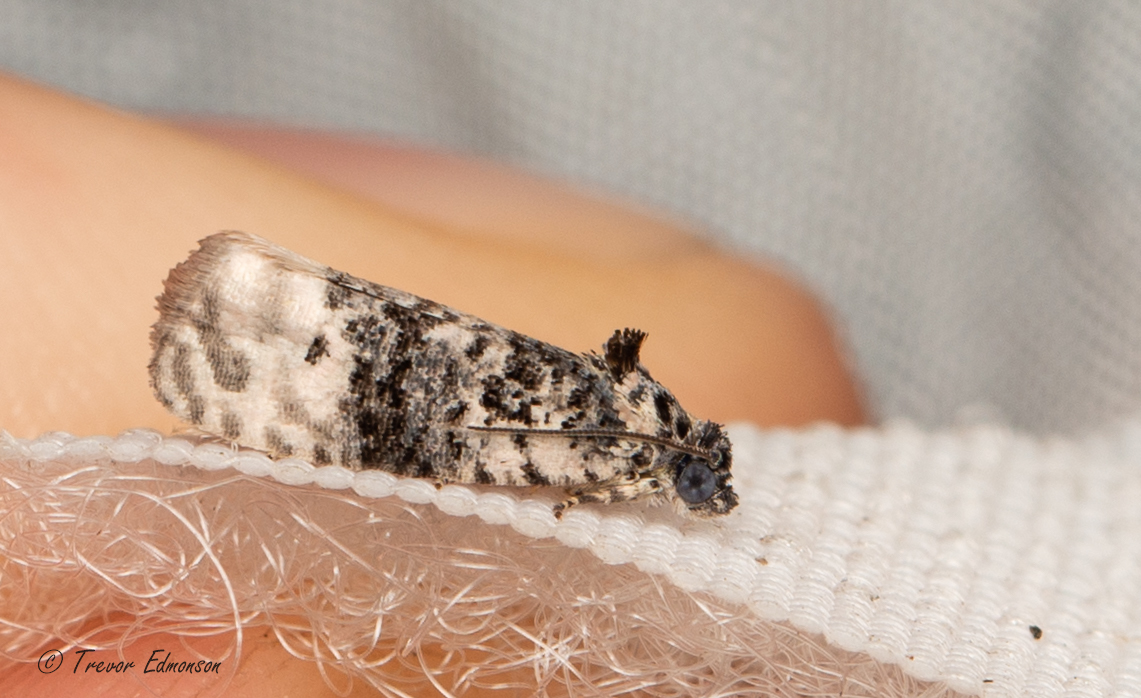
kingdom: Animalia
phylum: Arthropoda
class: Insecta
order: Lepidoptera
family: Tortricidae
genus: Hedya
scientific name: Hedya separatana
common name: Pink-washed leafroller moth
